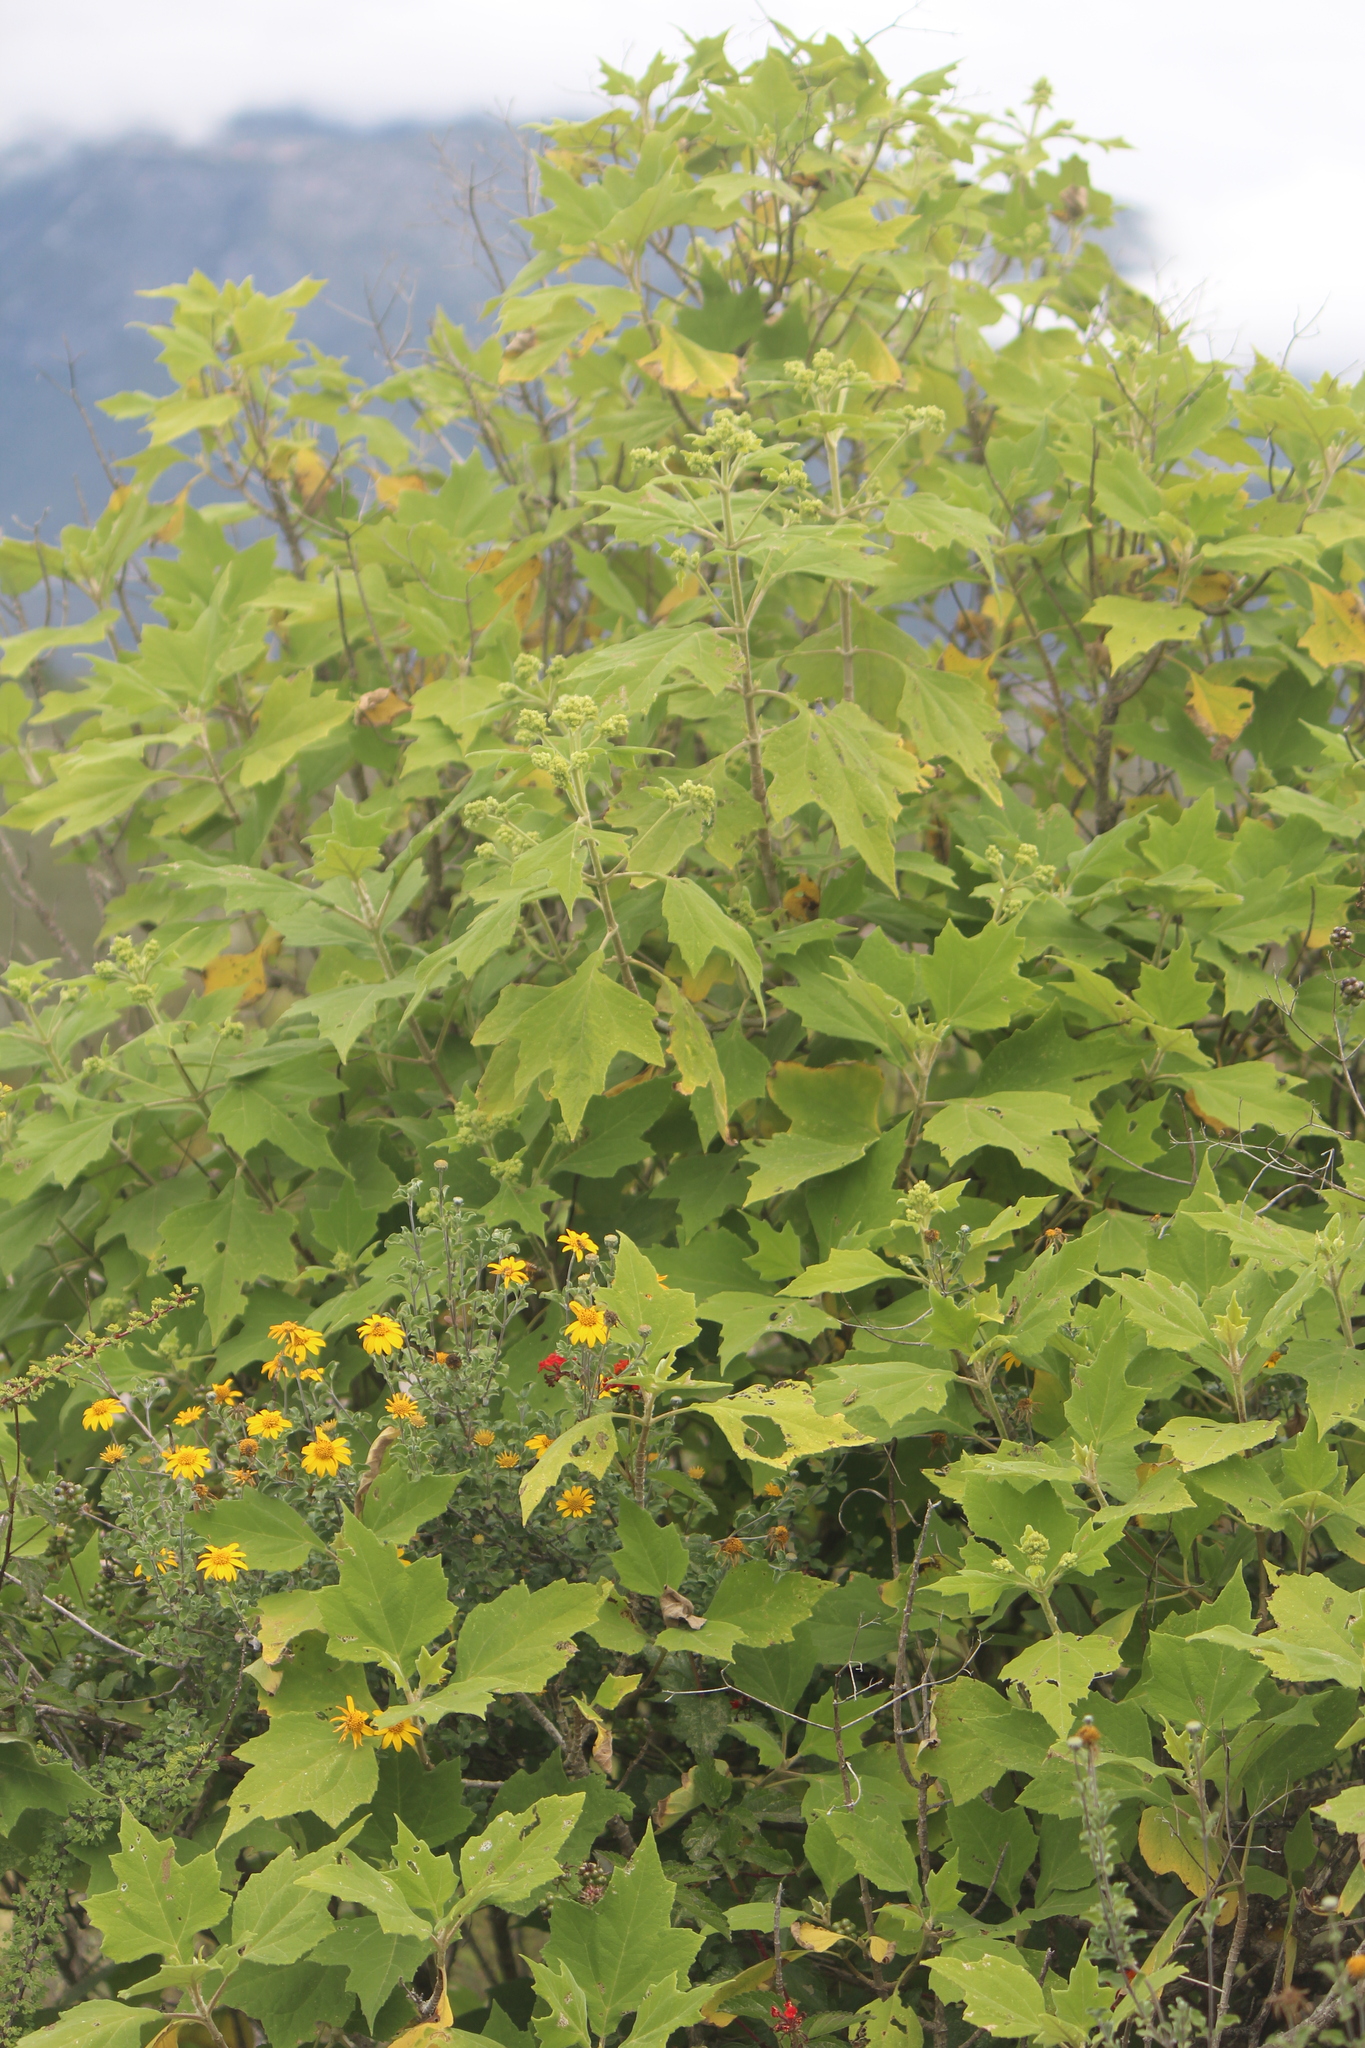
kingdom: Plantae
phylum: Tracheophyta
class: Magnoliopsida
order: Asterales
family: Asteraceae
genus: Montanoa
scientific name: Montanoa tomentosa
